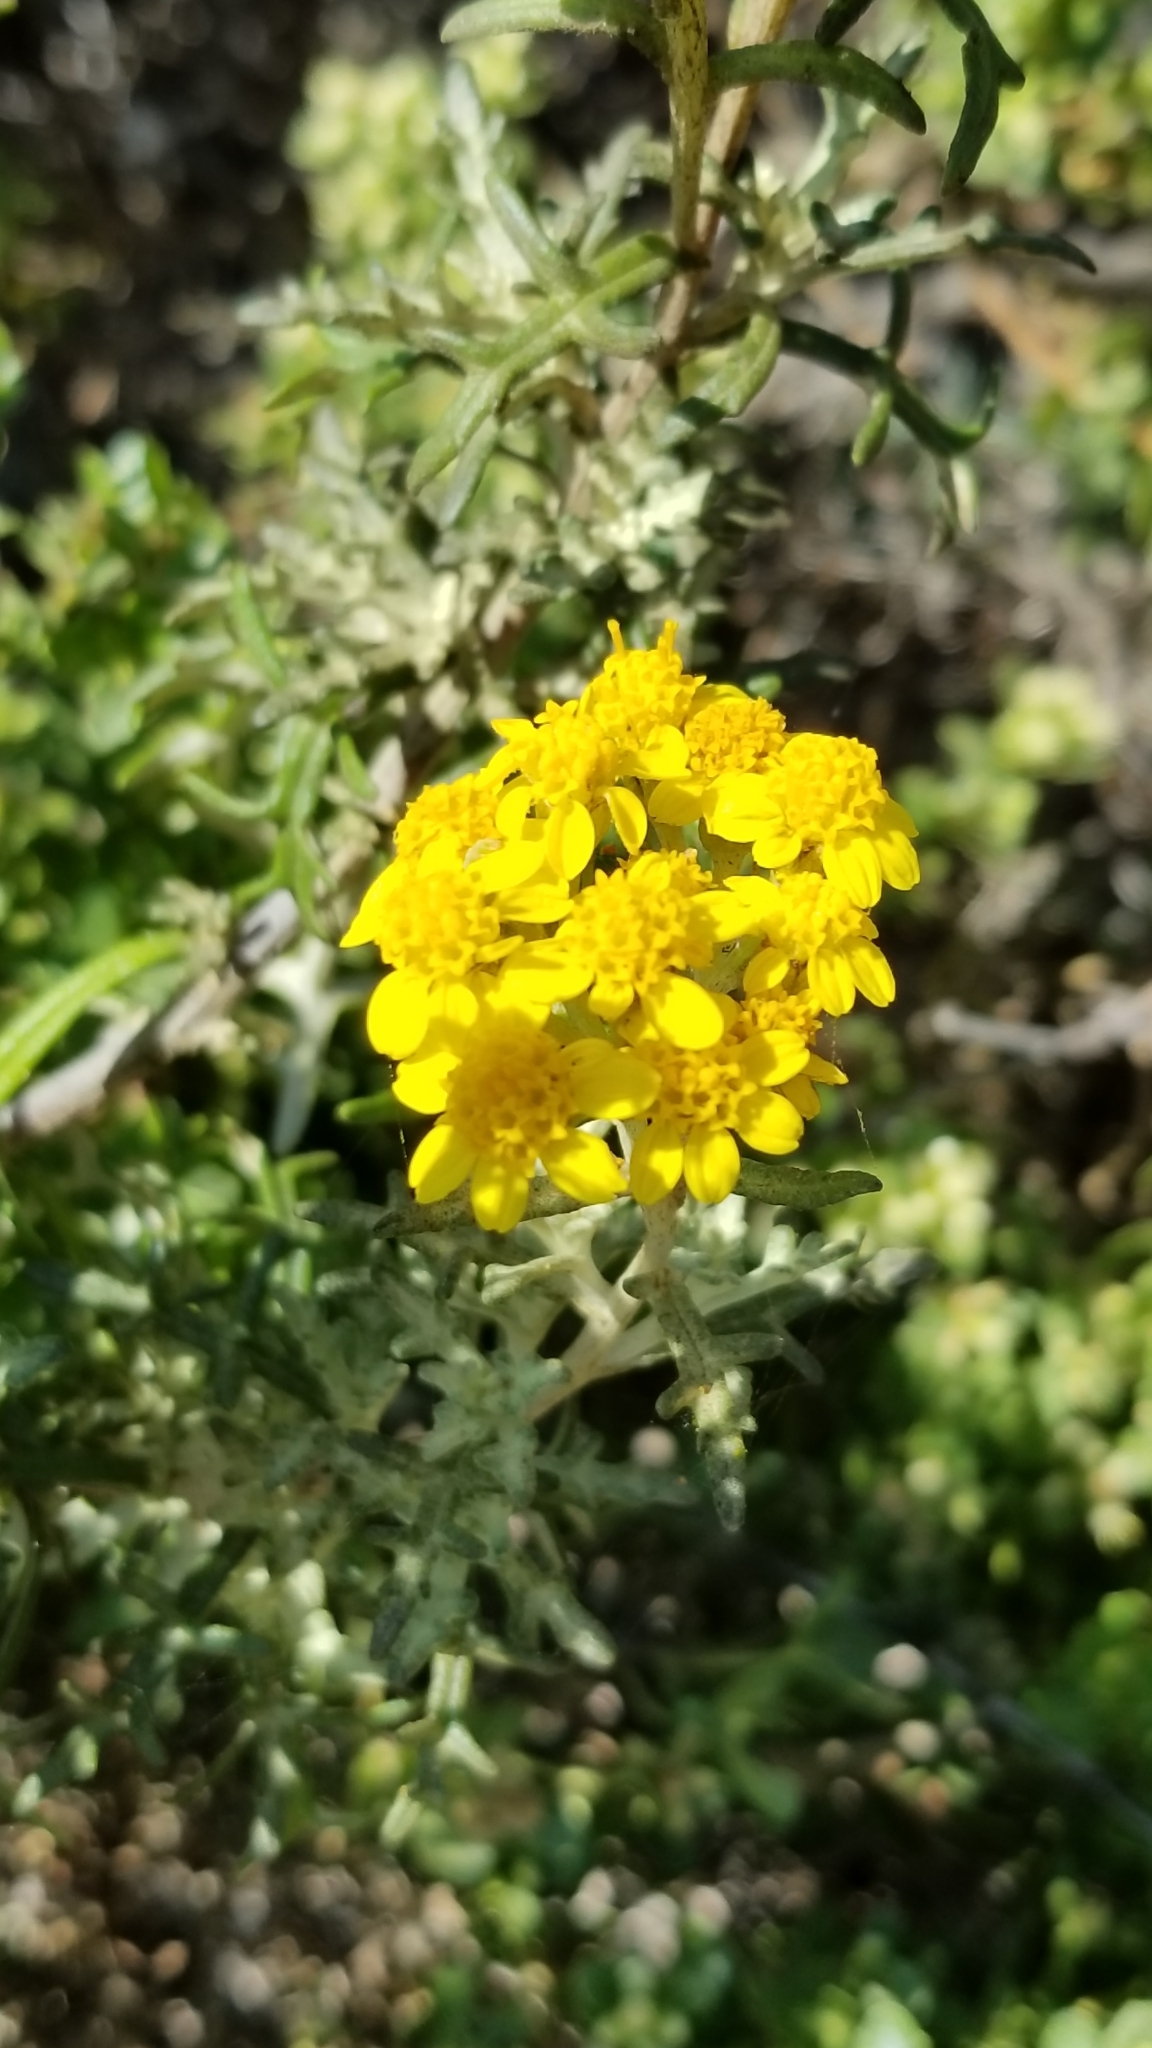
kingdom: Plantae
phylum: Tracheophyta
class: Magnoliopsida
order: Asterales
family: Asteraceae
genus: Eriophyllum
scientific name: Eriophyllum staechadifolium
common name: Lizardtail
